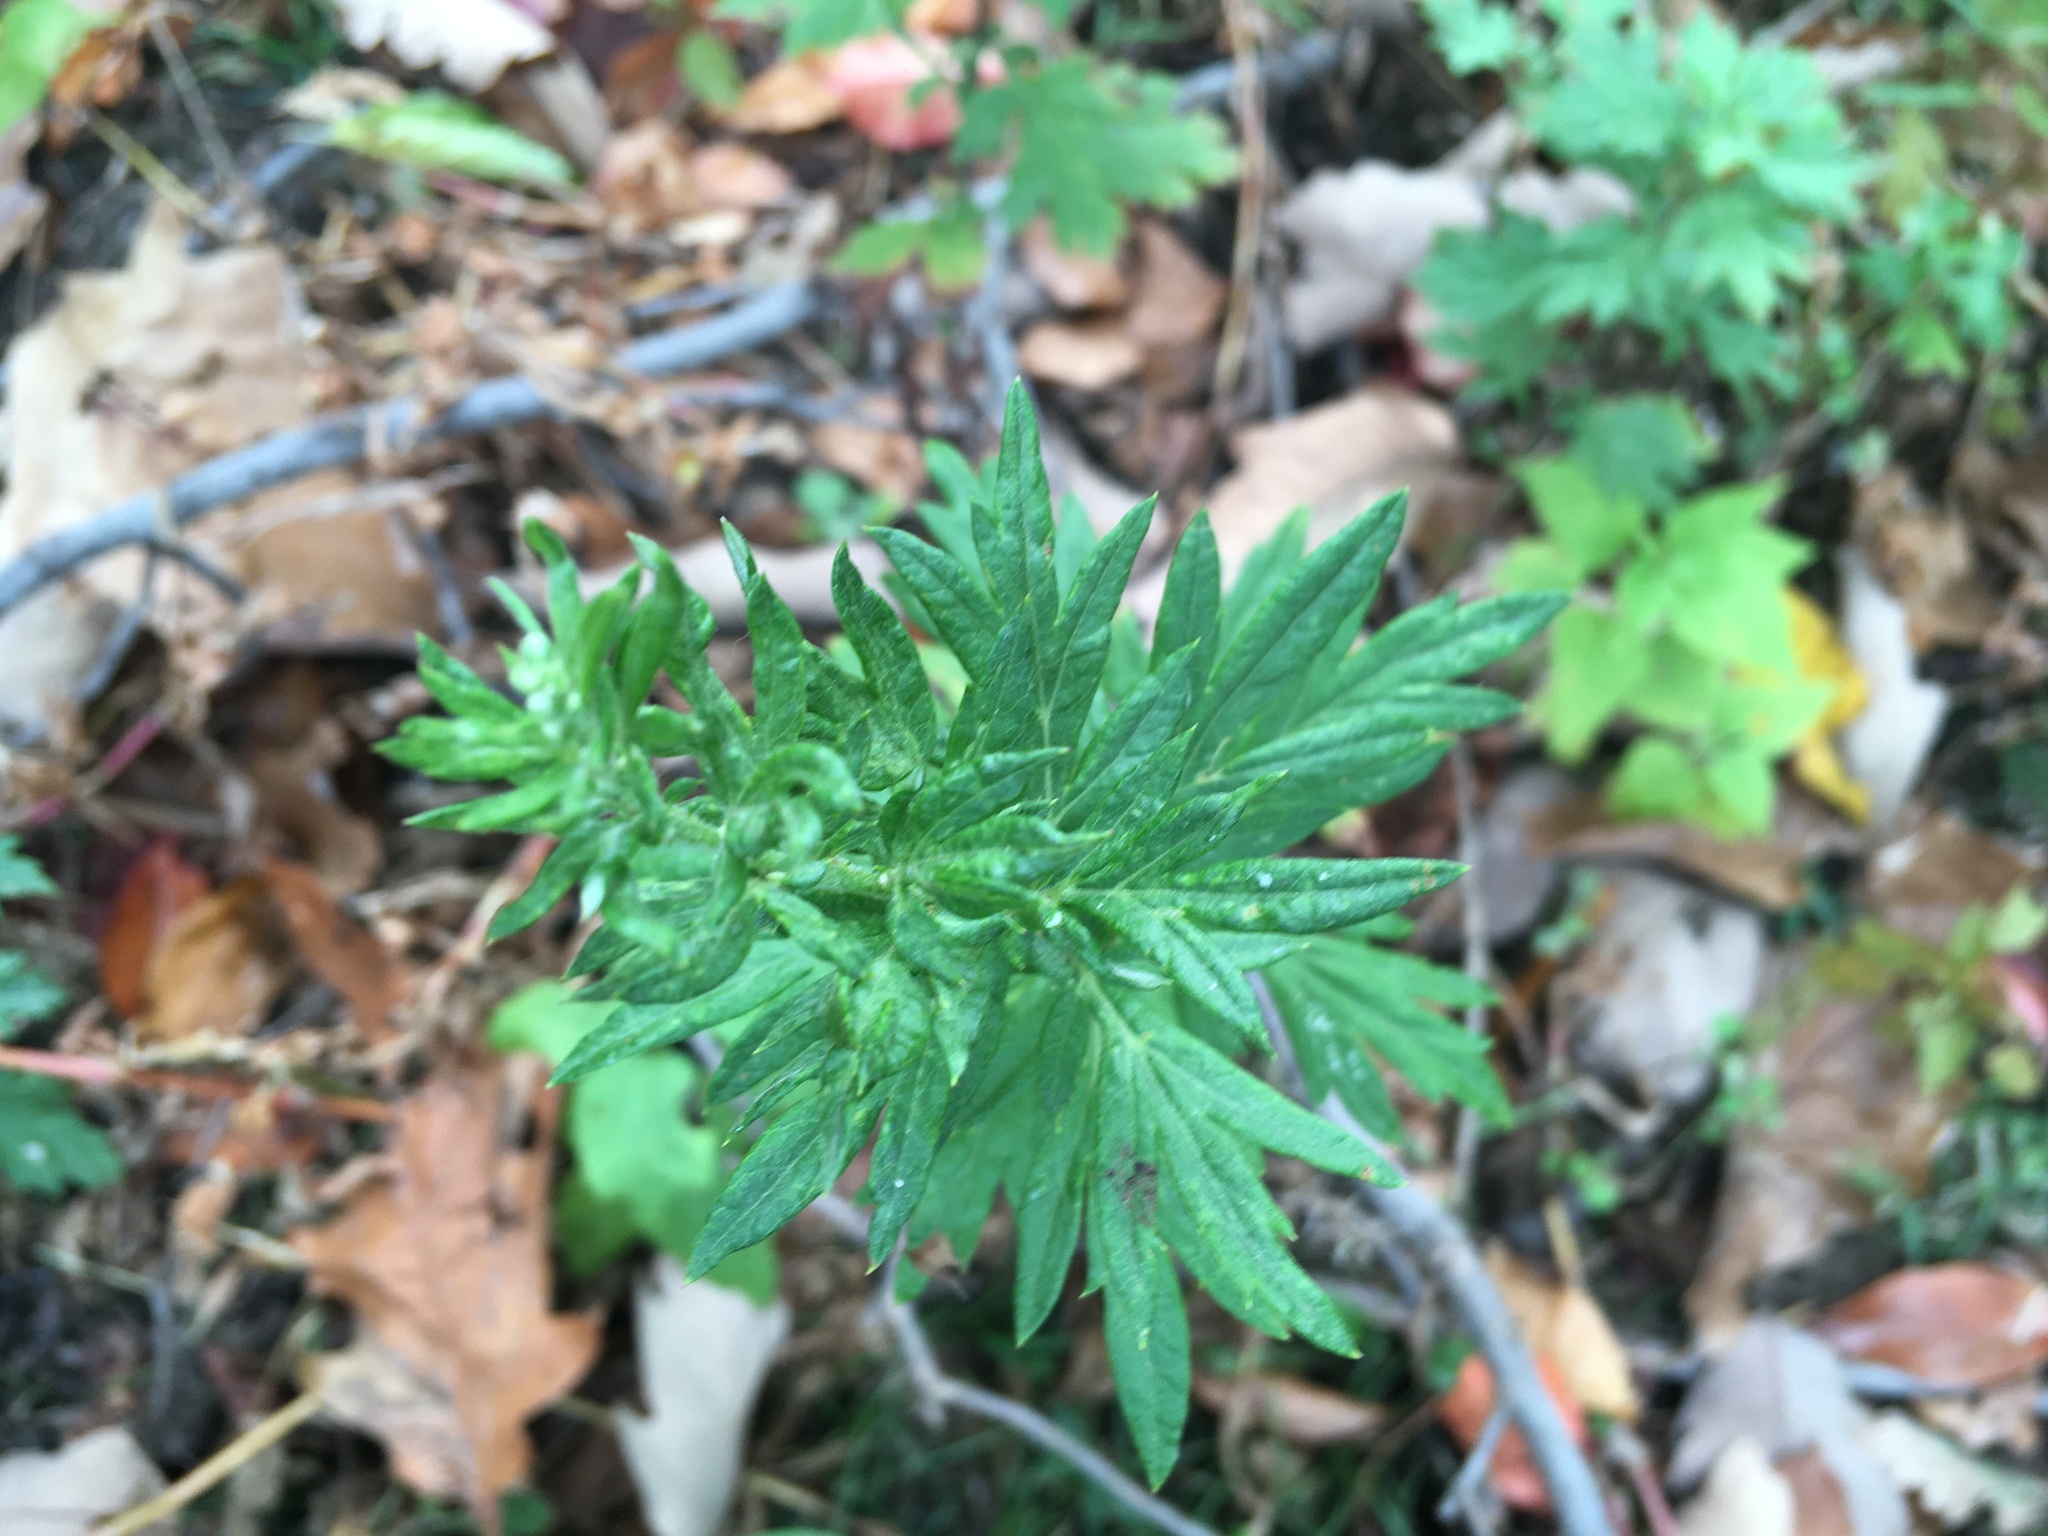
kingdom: Plantae
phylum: Tracheophyta
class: Magnoliopsida
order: Asterales
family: Asteraceae
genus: Artemisia
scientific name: Artemisia vulgaris
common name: Mugwort
